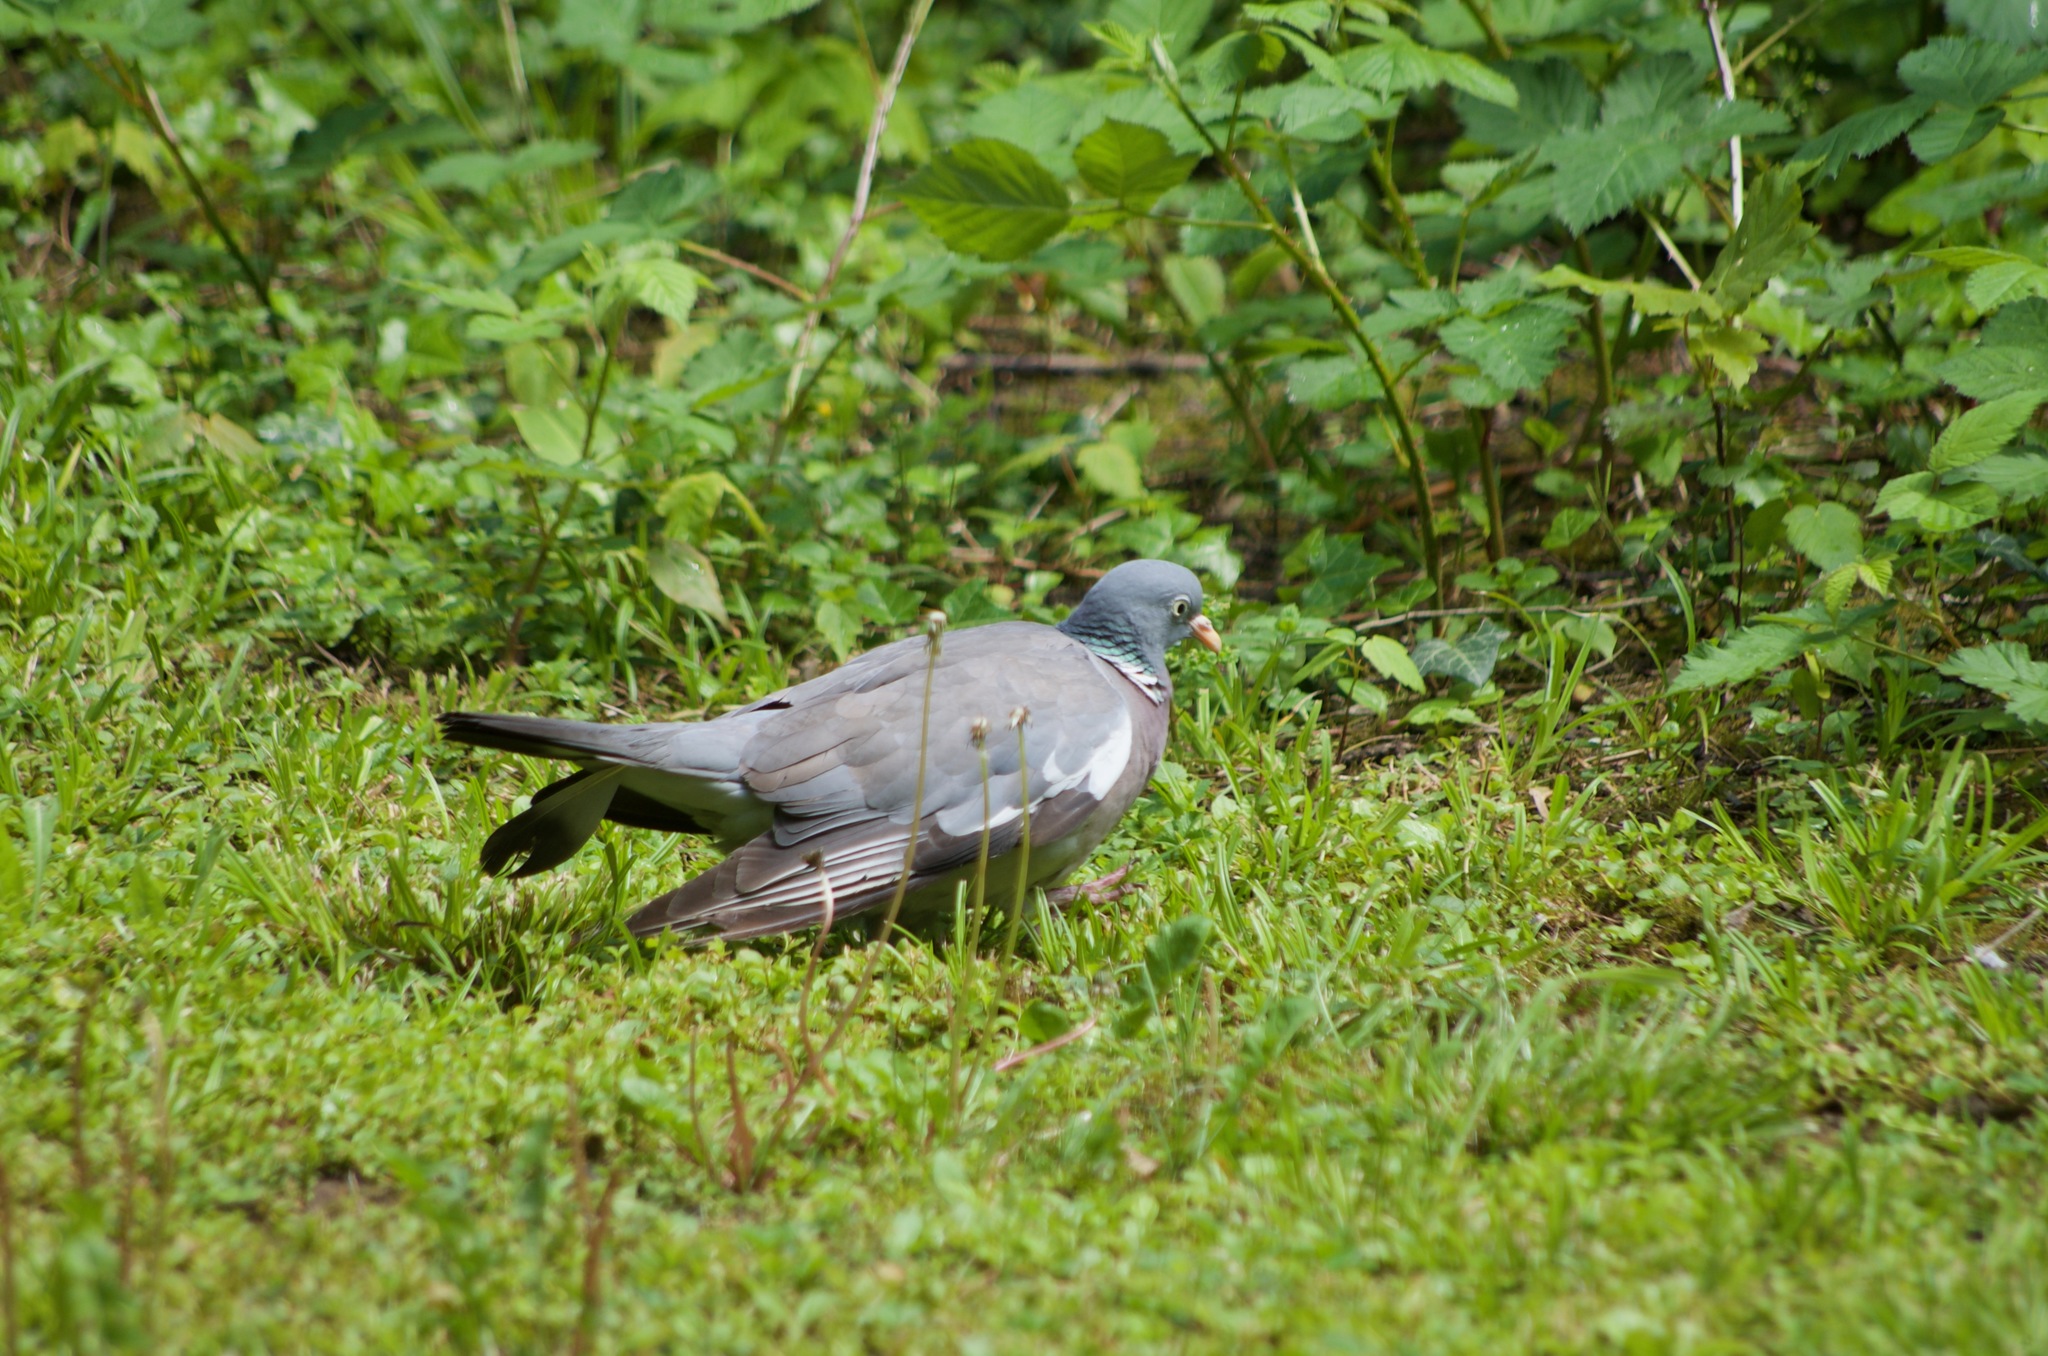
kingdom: Animalia
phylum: Chordata
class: Aves
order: Columbiformes
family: Columbidae
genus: Columba
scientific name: Columba palumbus
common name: Common wood pigeon
